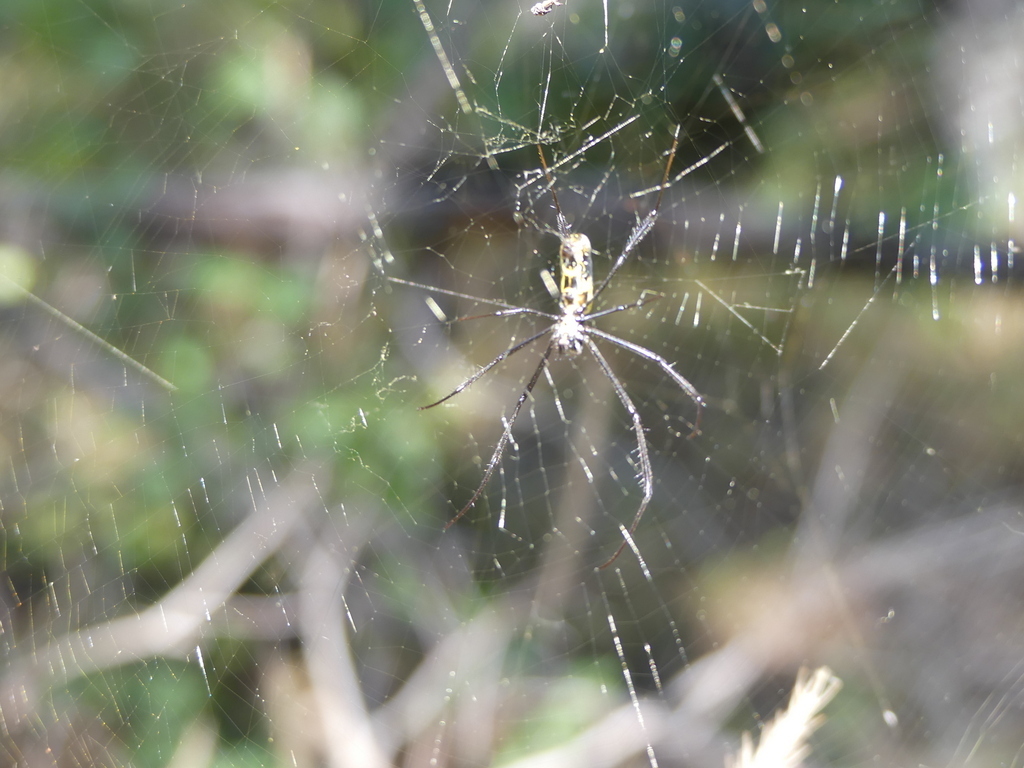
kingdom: Animalia
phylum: Arthropoda
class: Arachnida
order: Araneae
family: Araneidae
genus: Trichonephila
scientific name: Trichonephila fenestrata
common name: Hairy golden orb weaver
